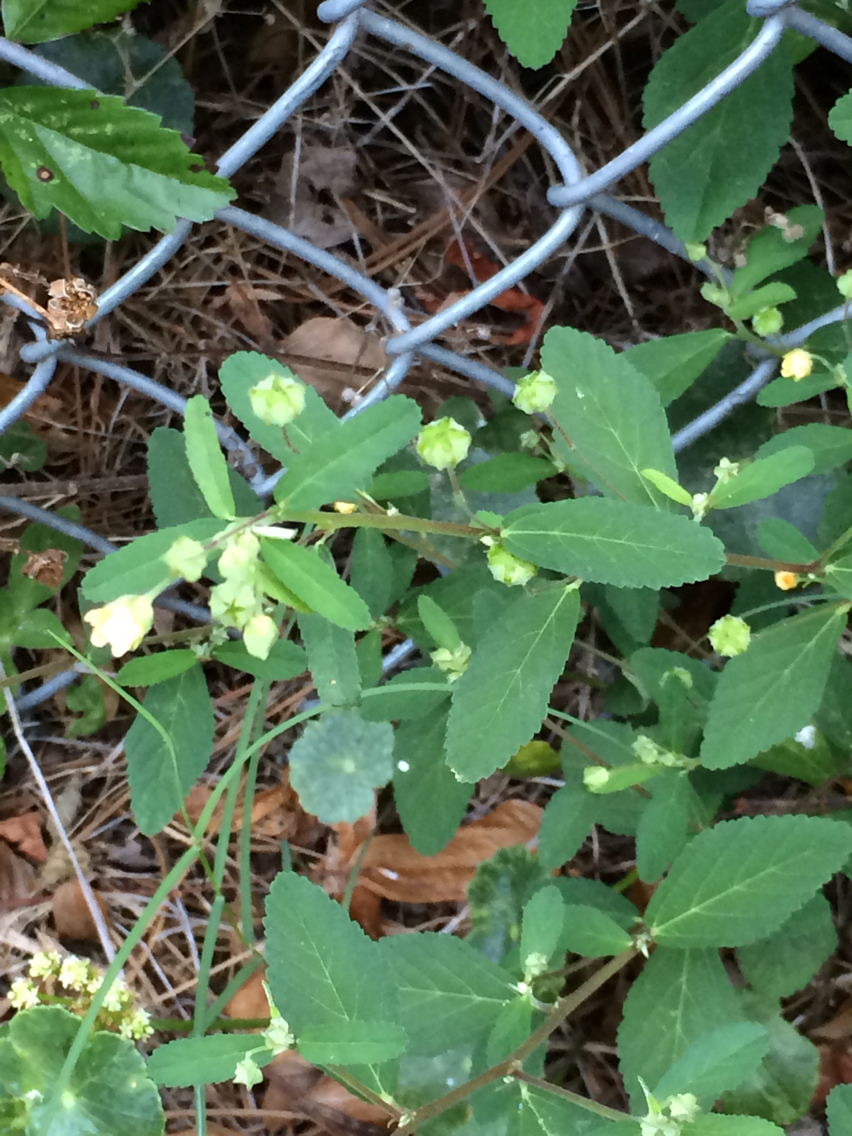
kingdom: Plantae
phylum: Tracheophyta
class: Magnoliopsida
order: Malvales
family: Malvaceae
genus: Sida
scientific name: Sida rhombifolia
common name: Queensland-hemp
